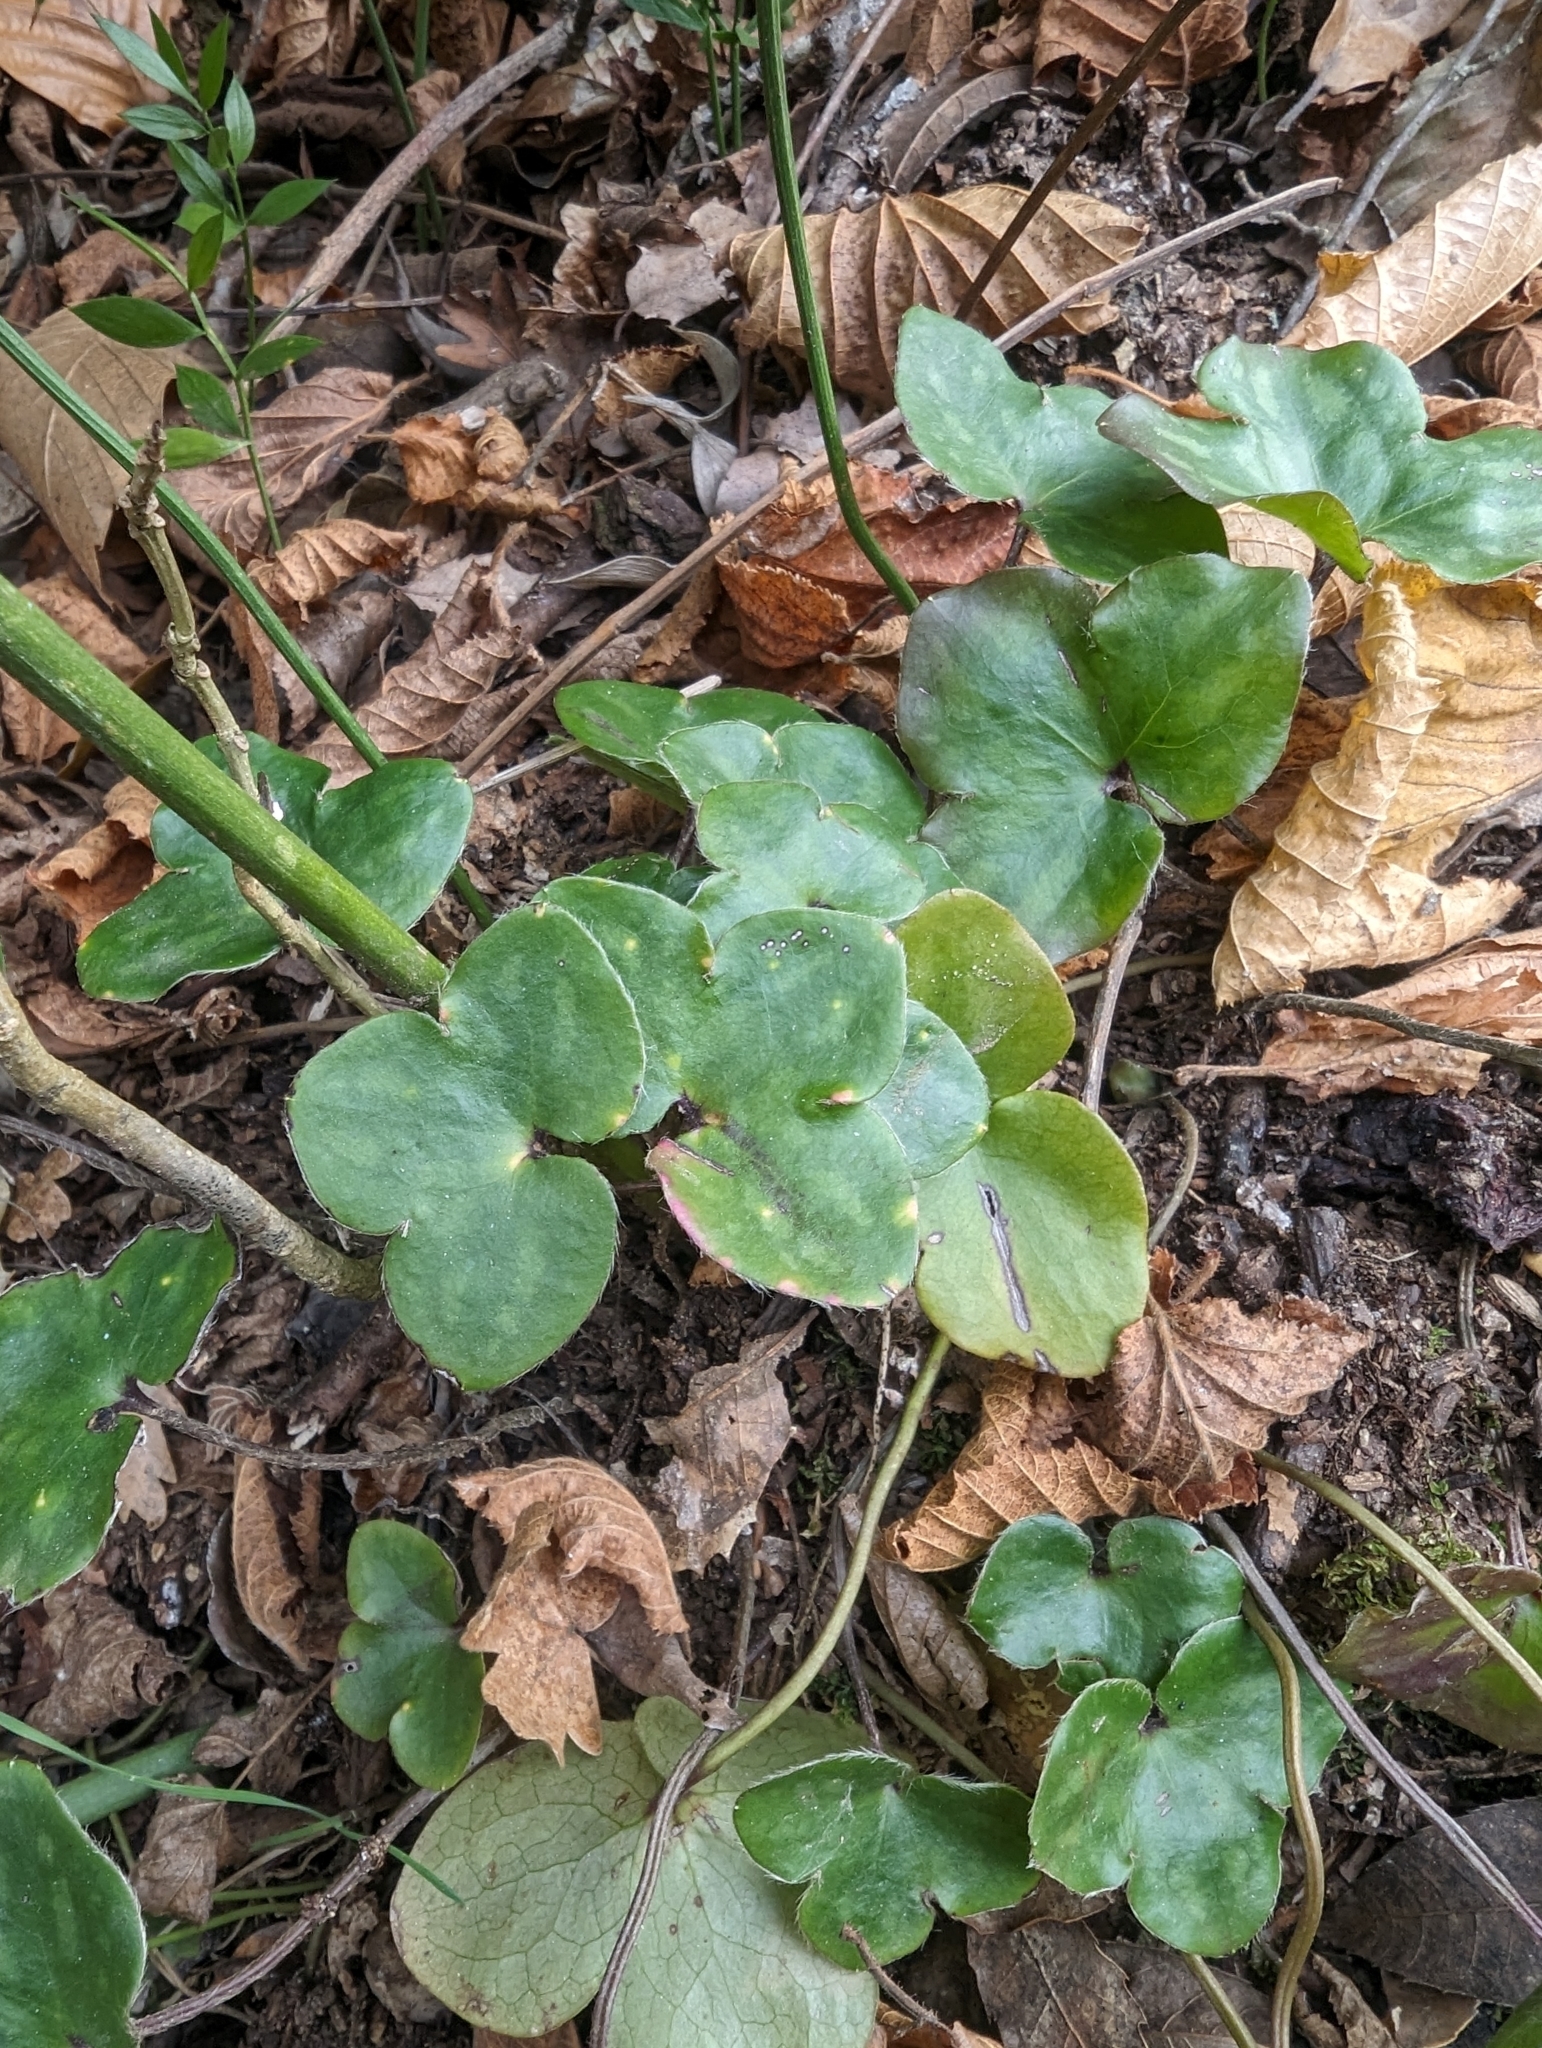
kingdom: Plantae
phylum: Tracheophyta
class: Magnoliopsida
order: Ranunculales
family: Ranunculaceae
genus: Hepatica
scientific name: Hepatica nobilis
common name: Liverleaf
